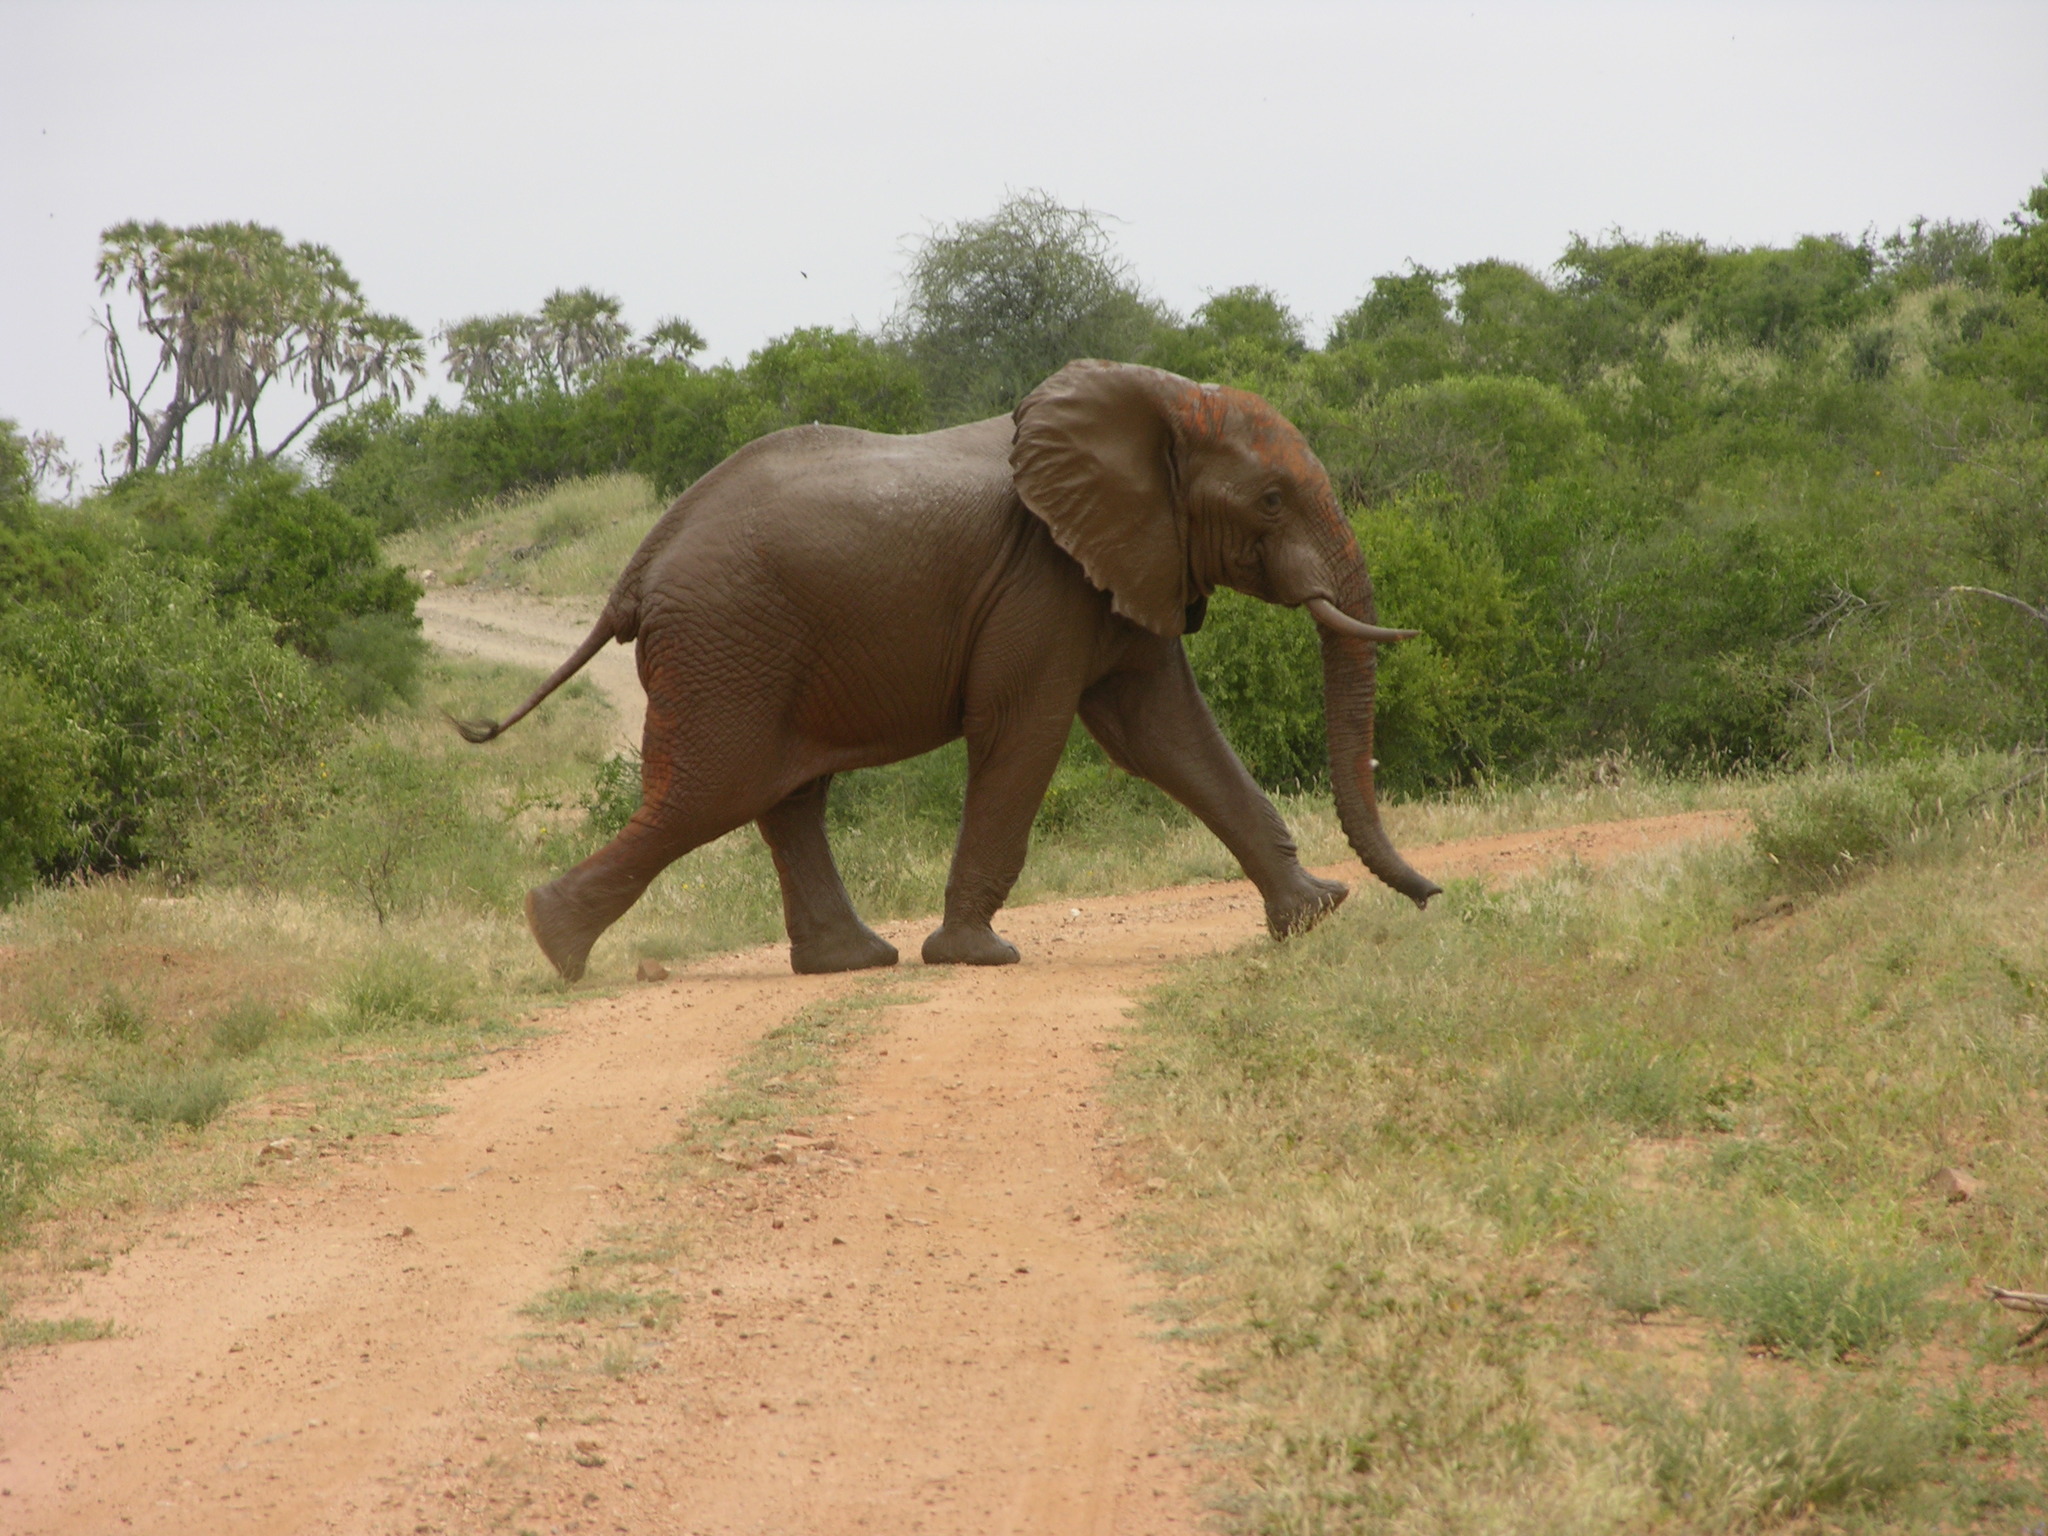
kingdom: Animalia
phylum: Chordata
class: Mammalia
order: Proboscidea
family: Elephantidae
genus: Loxodonta
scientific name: Loxodonta africana
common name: African elephant
